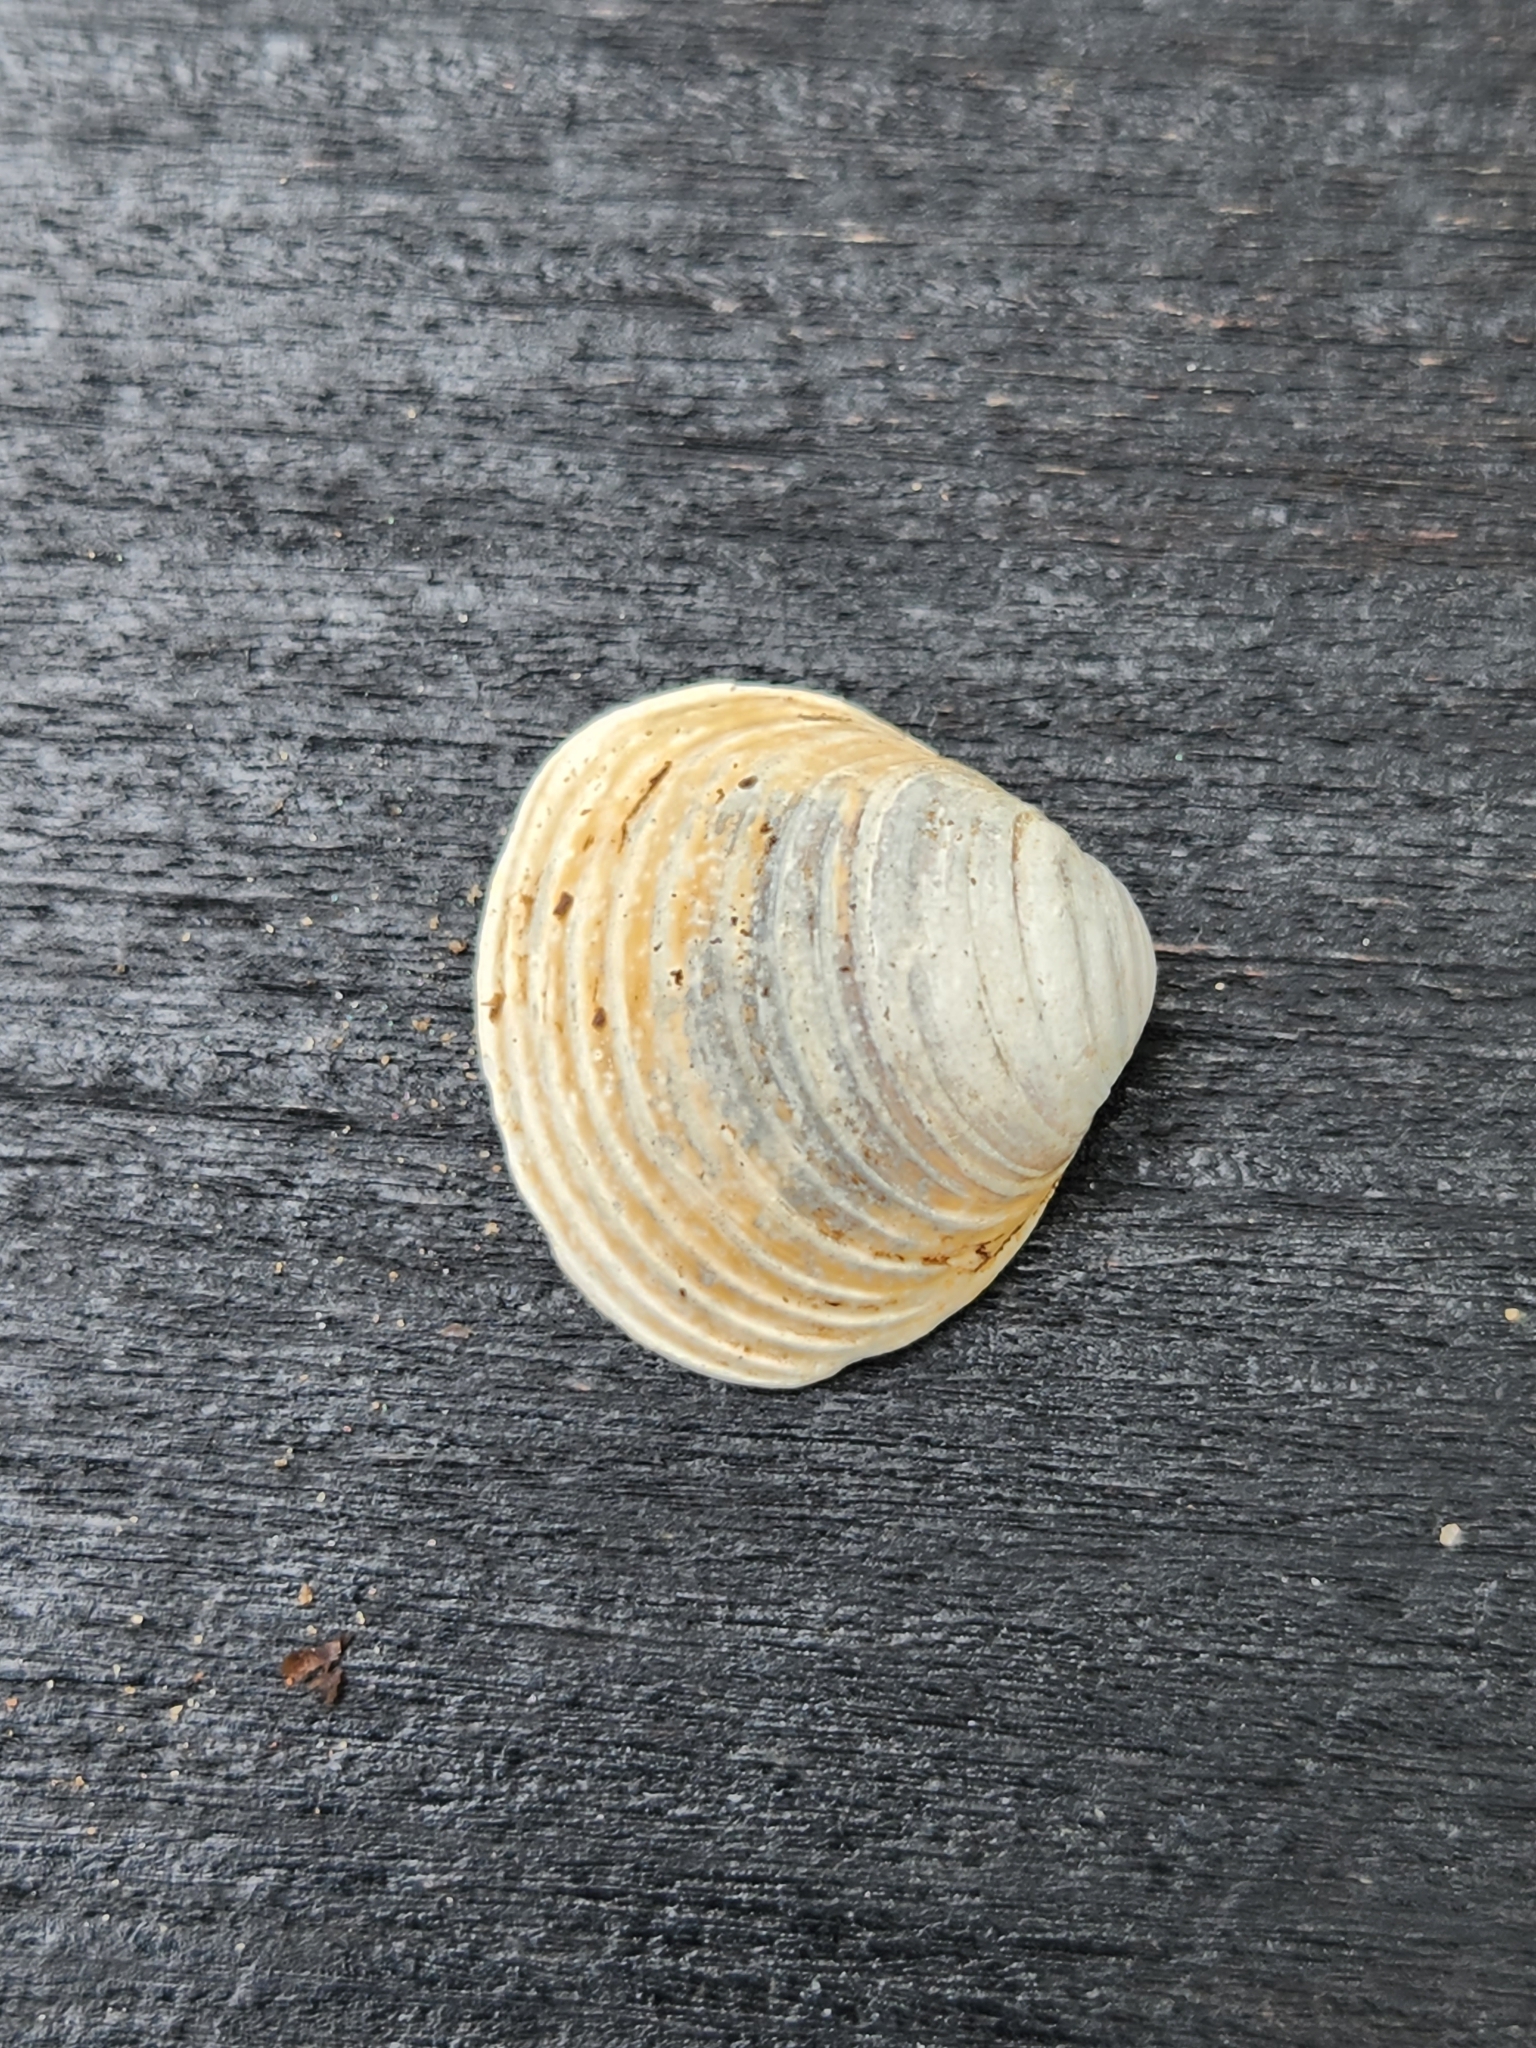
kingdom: Animalia
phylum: Mollusca
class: Bivalvia
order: Venerida
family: Cyrenidae
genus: Corbicula
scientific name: Corbicula fluminea
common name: Asian clam
